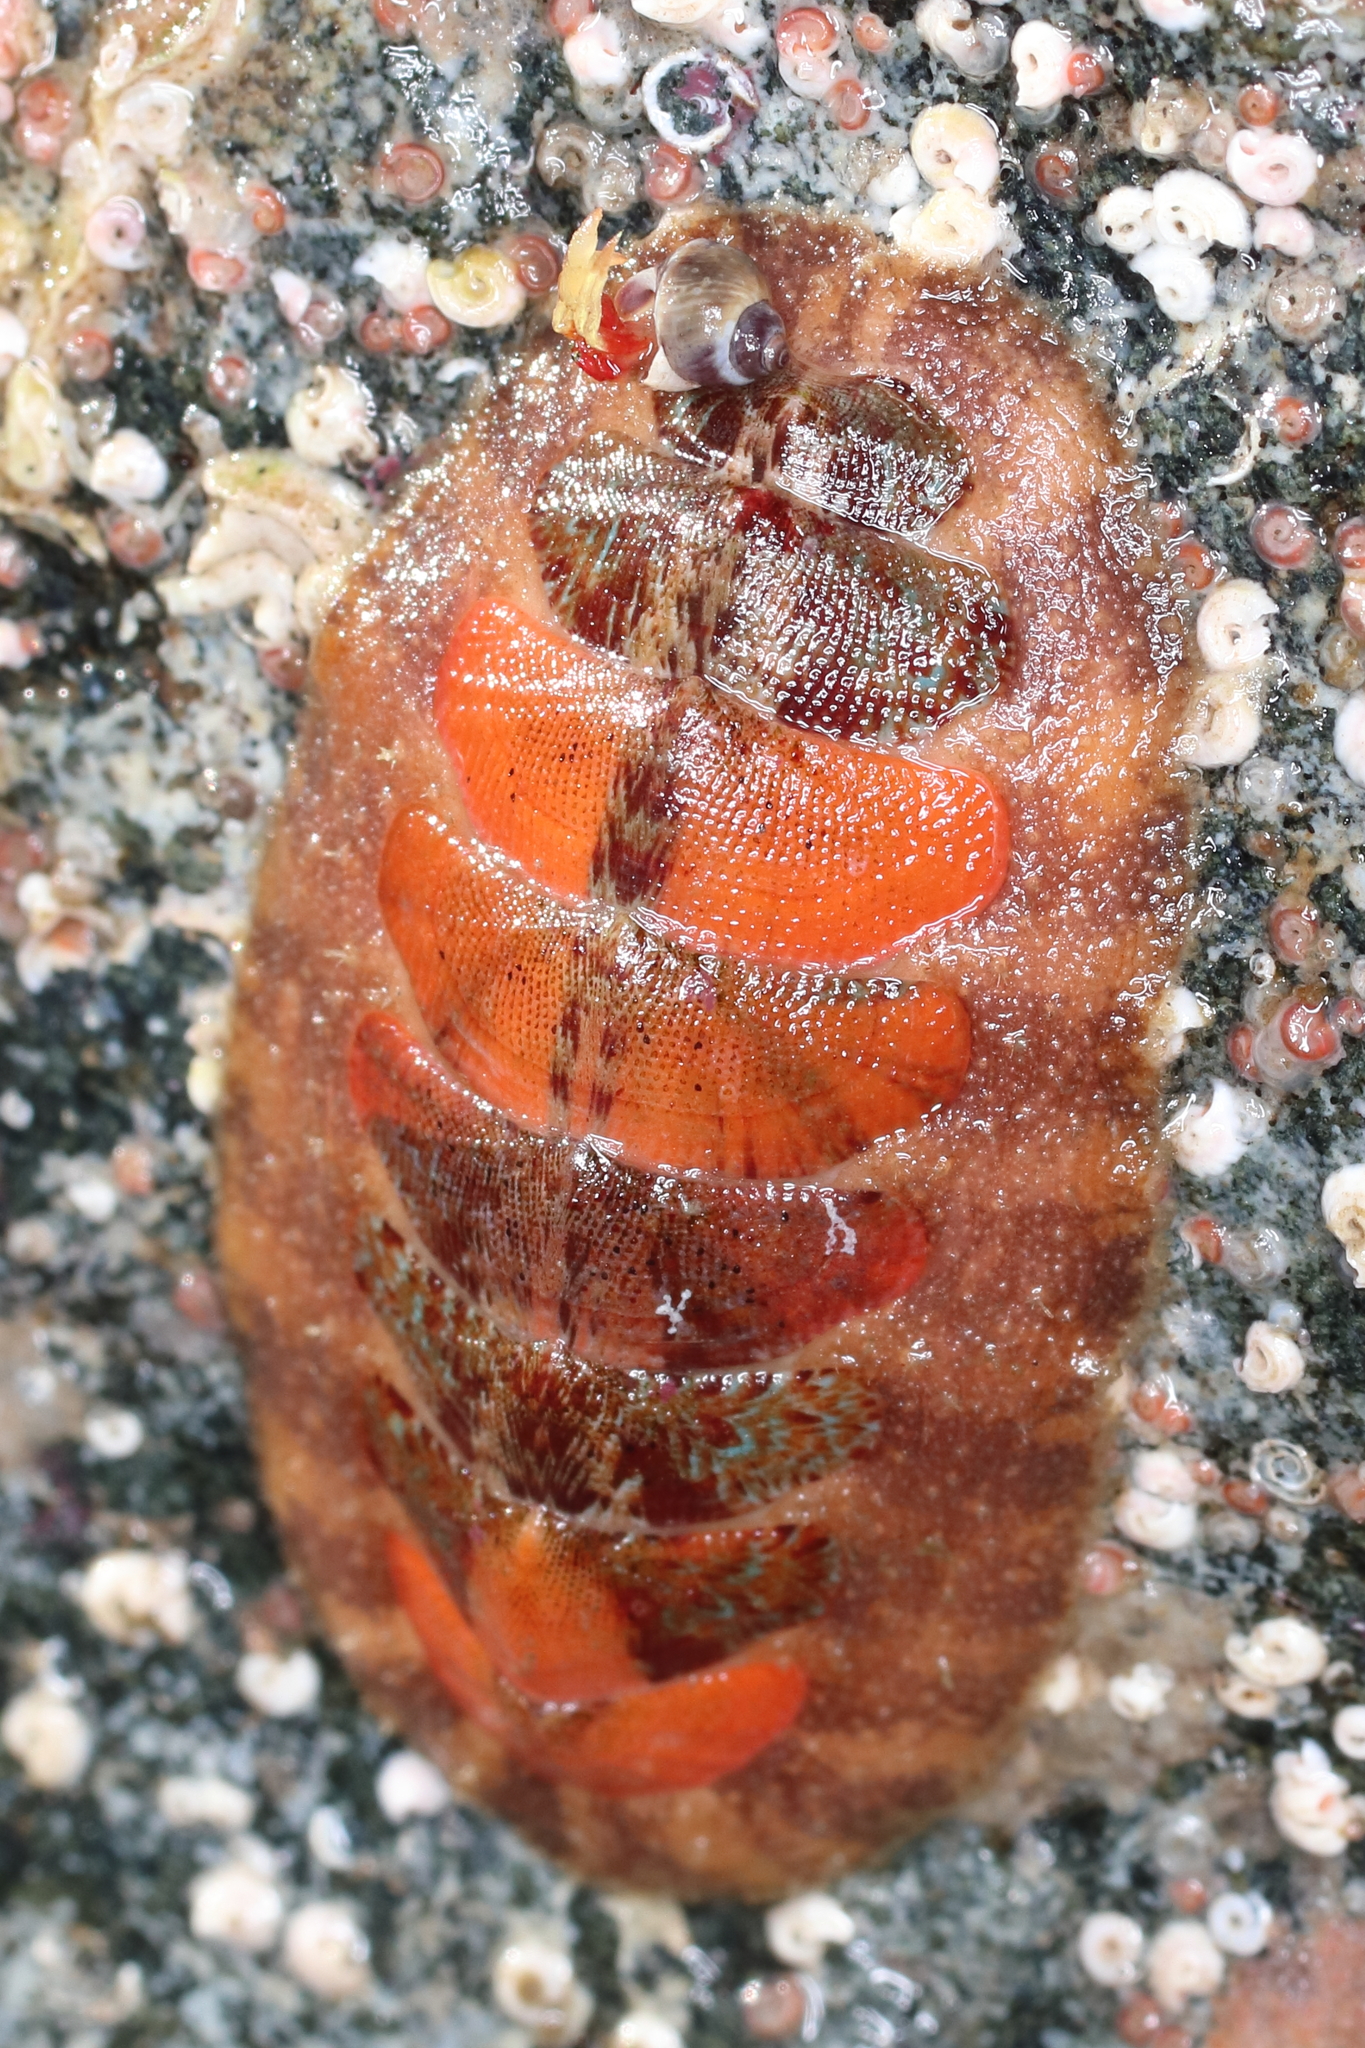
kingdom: Animalia
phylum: Mollusca
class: Polyplacophora
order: Chitonida
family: Mopaliidae
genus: Mopalia
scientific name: Mopalia swanii
